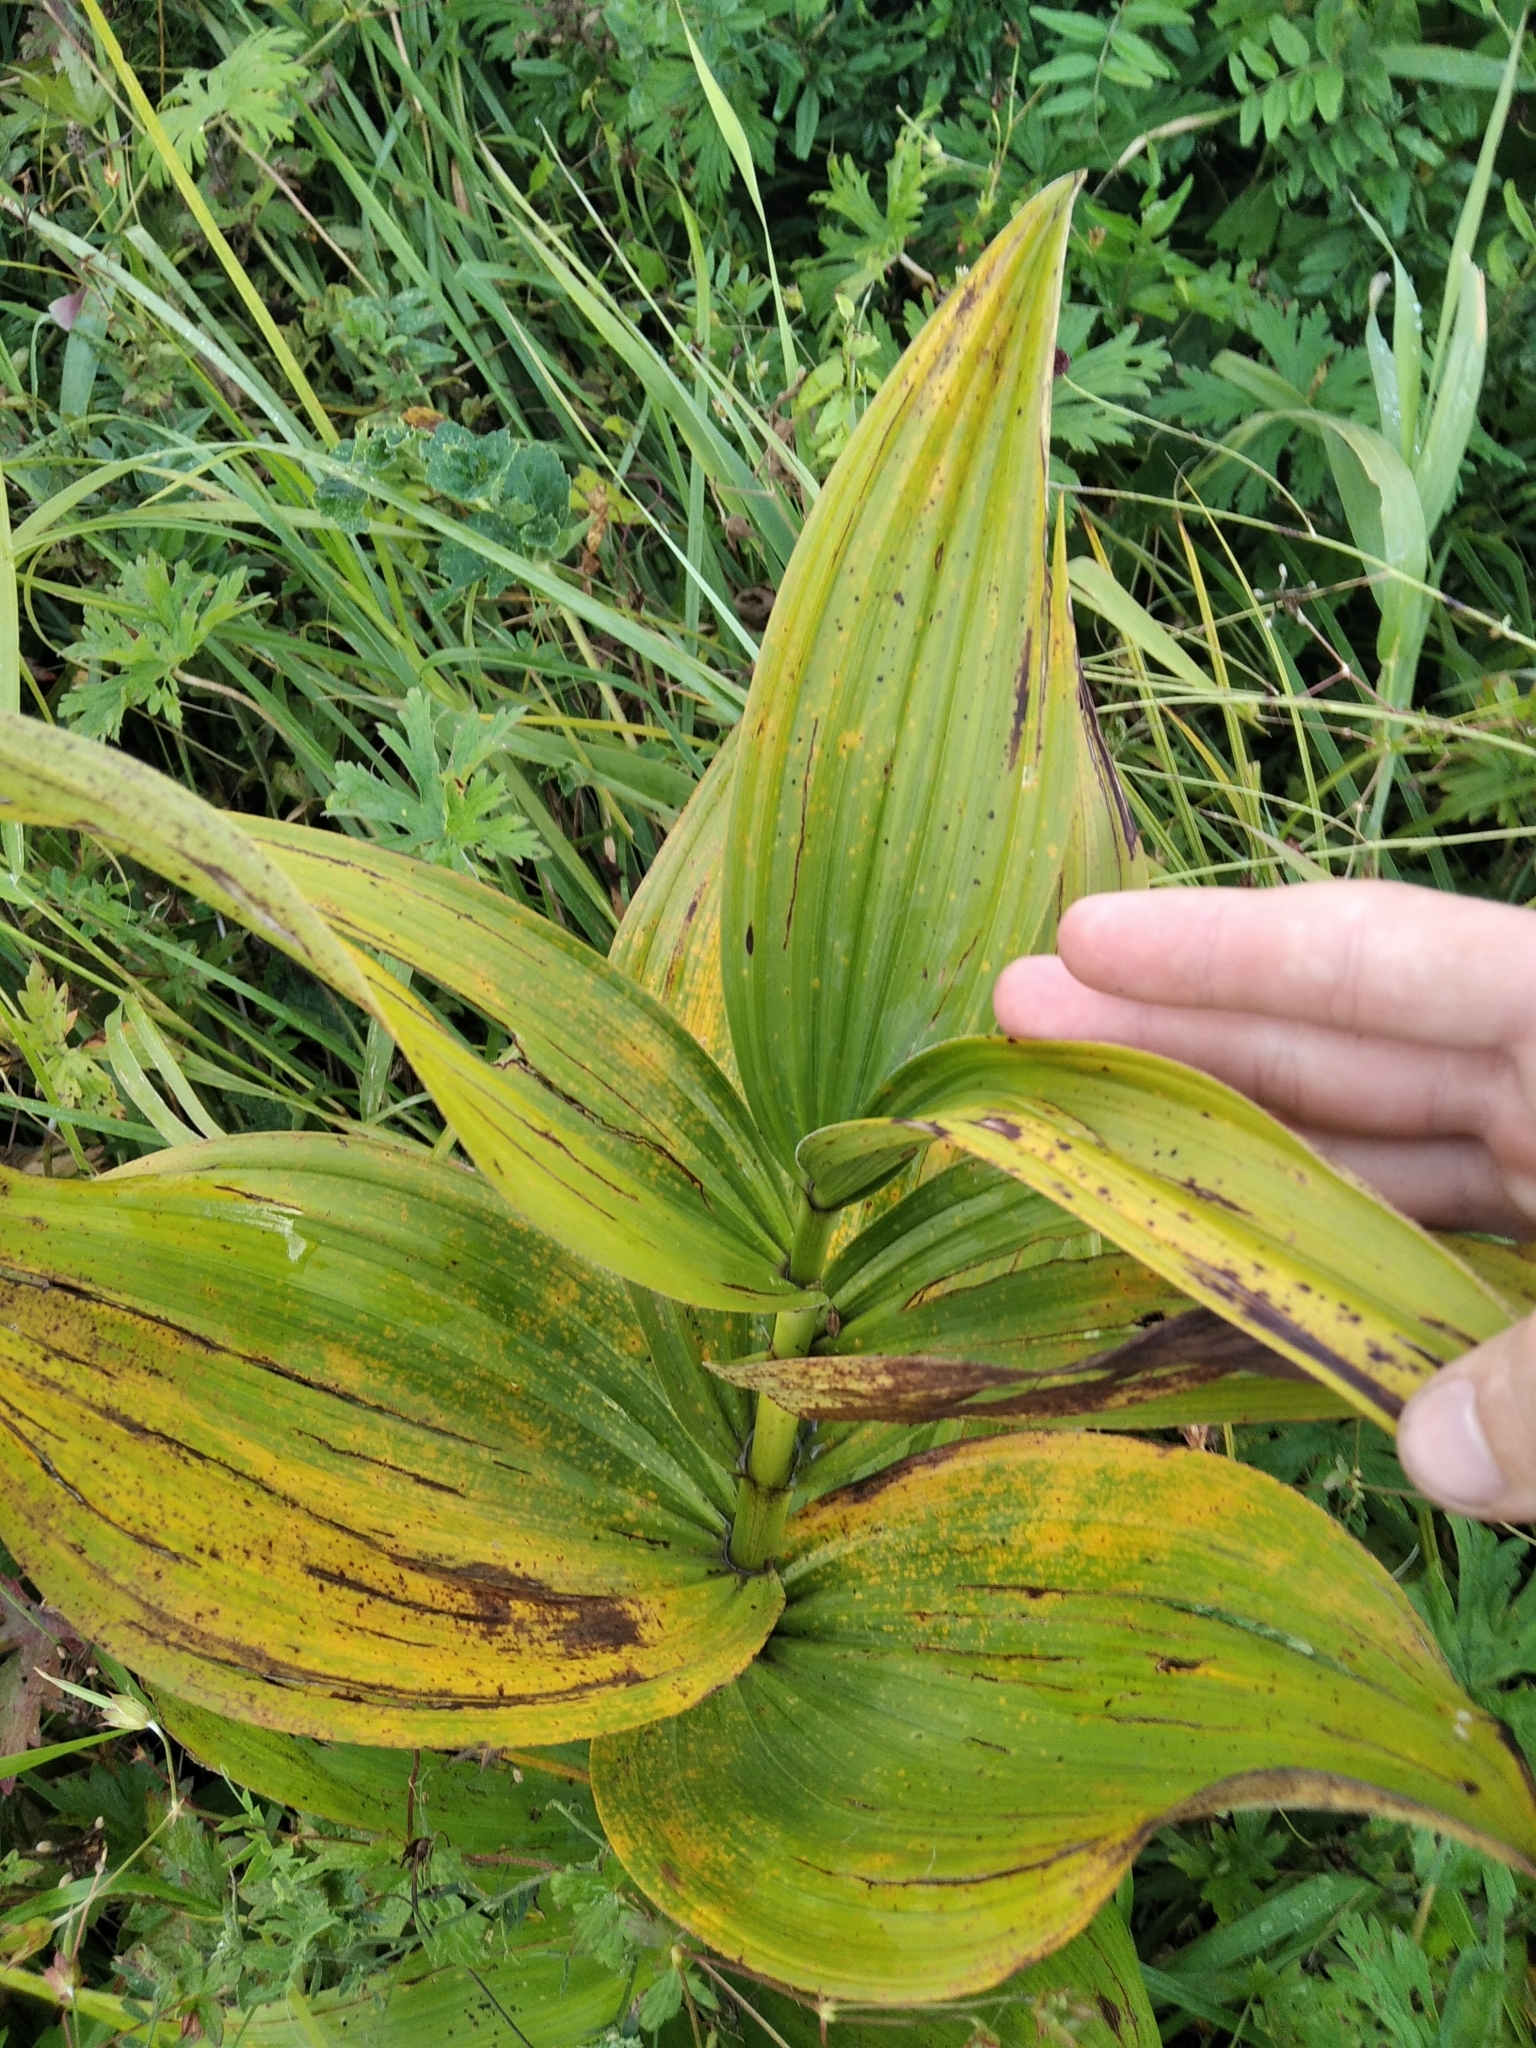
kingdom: Plantae
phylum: Tracheophyta
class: Liliopsida
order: Liliales
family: Melanthiaceae
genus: Veratrum
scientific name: Veratrum lobelianum
